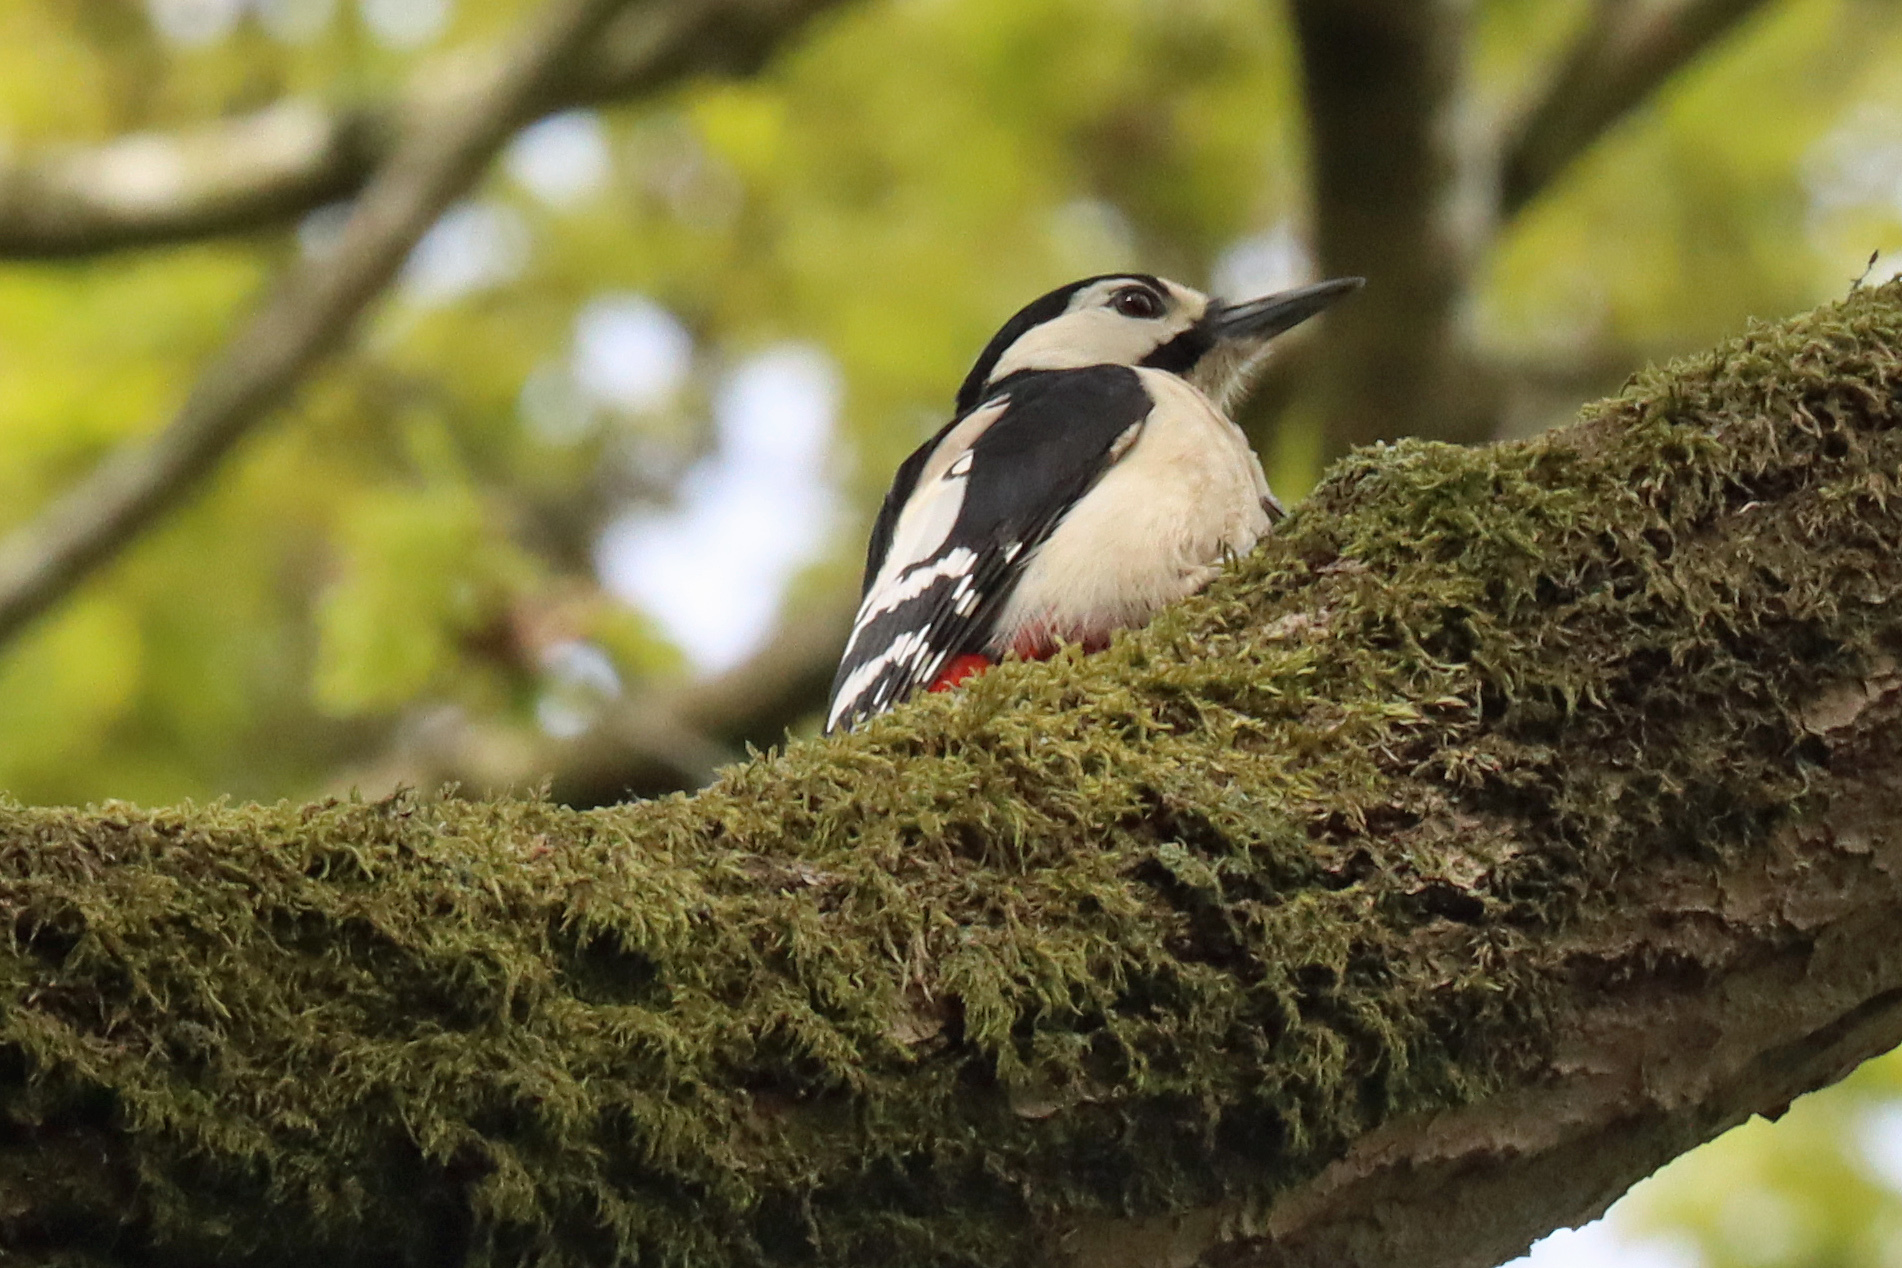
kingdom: Animalia
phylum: Chordata
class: Aves
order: Piciformes
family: Picidae
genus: Dendrocopos
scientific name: Dendrocopos major
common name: Great spotted woodpecker
